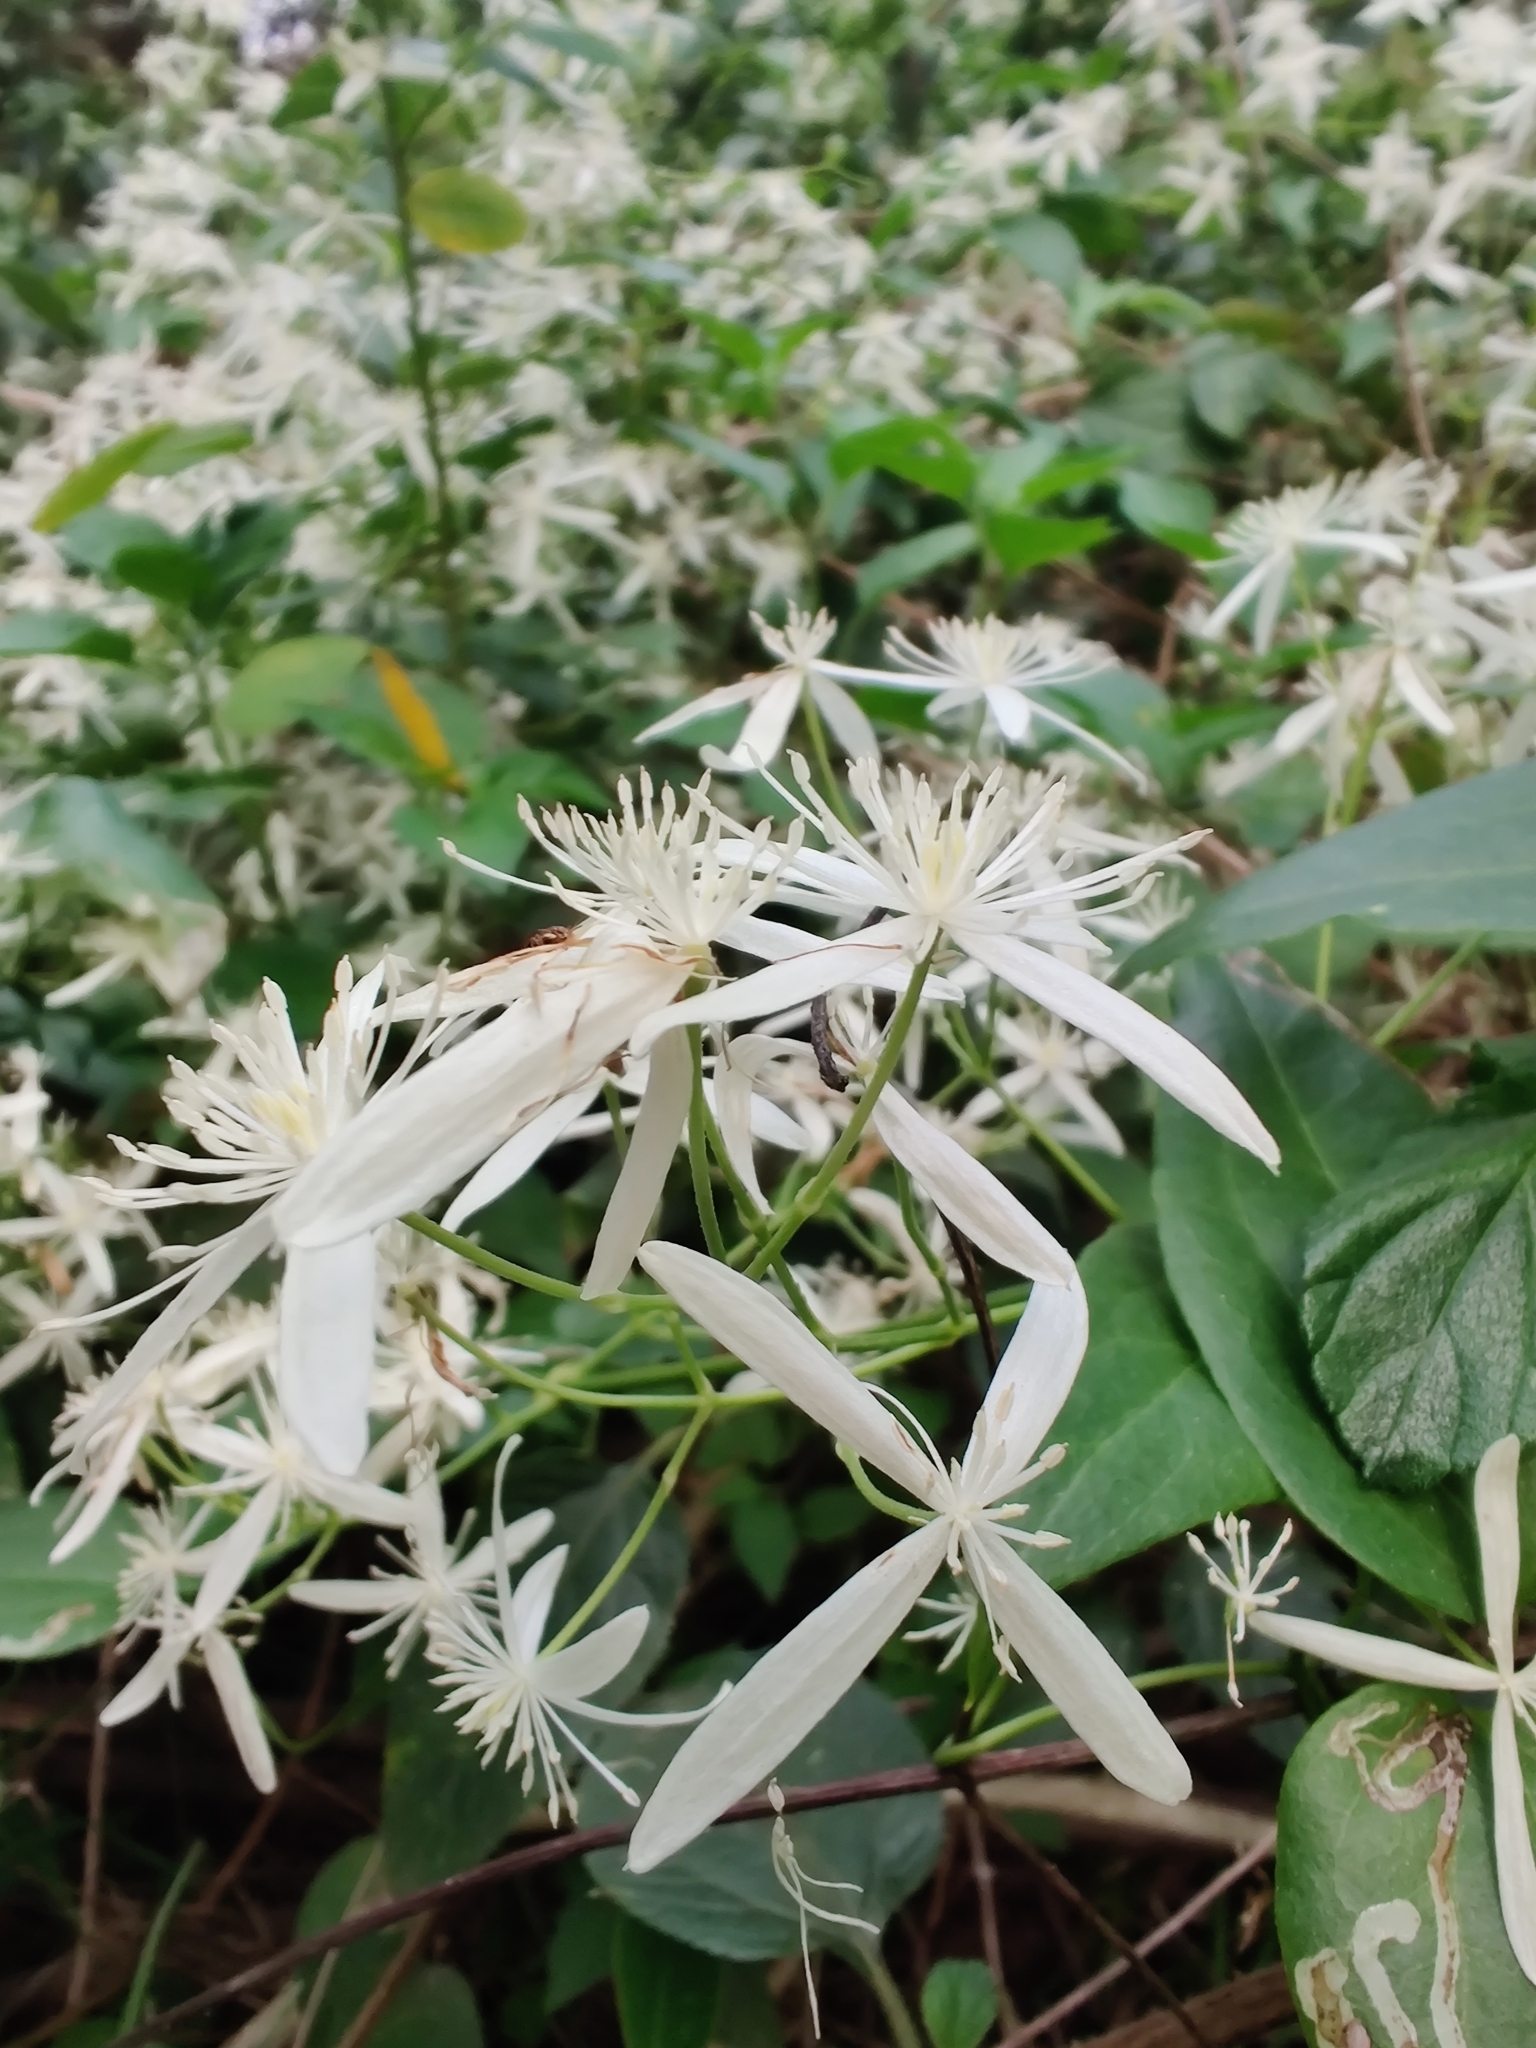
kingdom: Plantae
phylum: Tracheophyta
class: Magnoliopsida
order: Ranunculales
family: Ranunculaceae
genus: Clematis
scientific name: Clematis glycinoides
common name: Forest clematis
